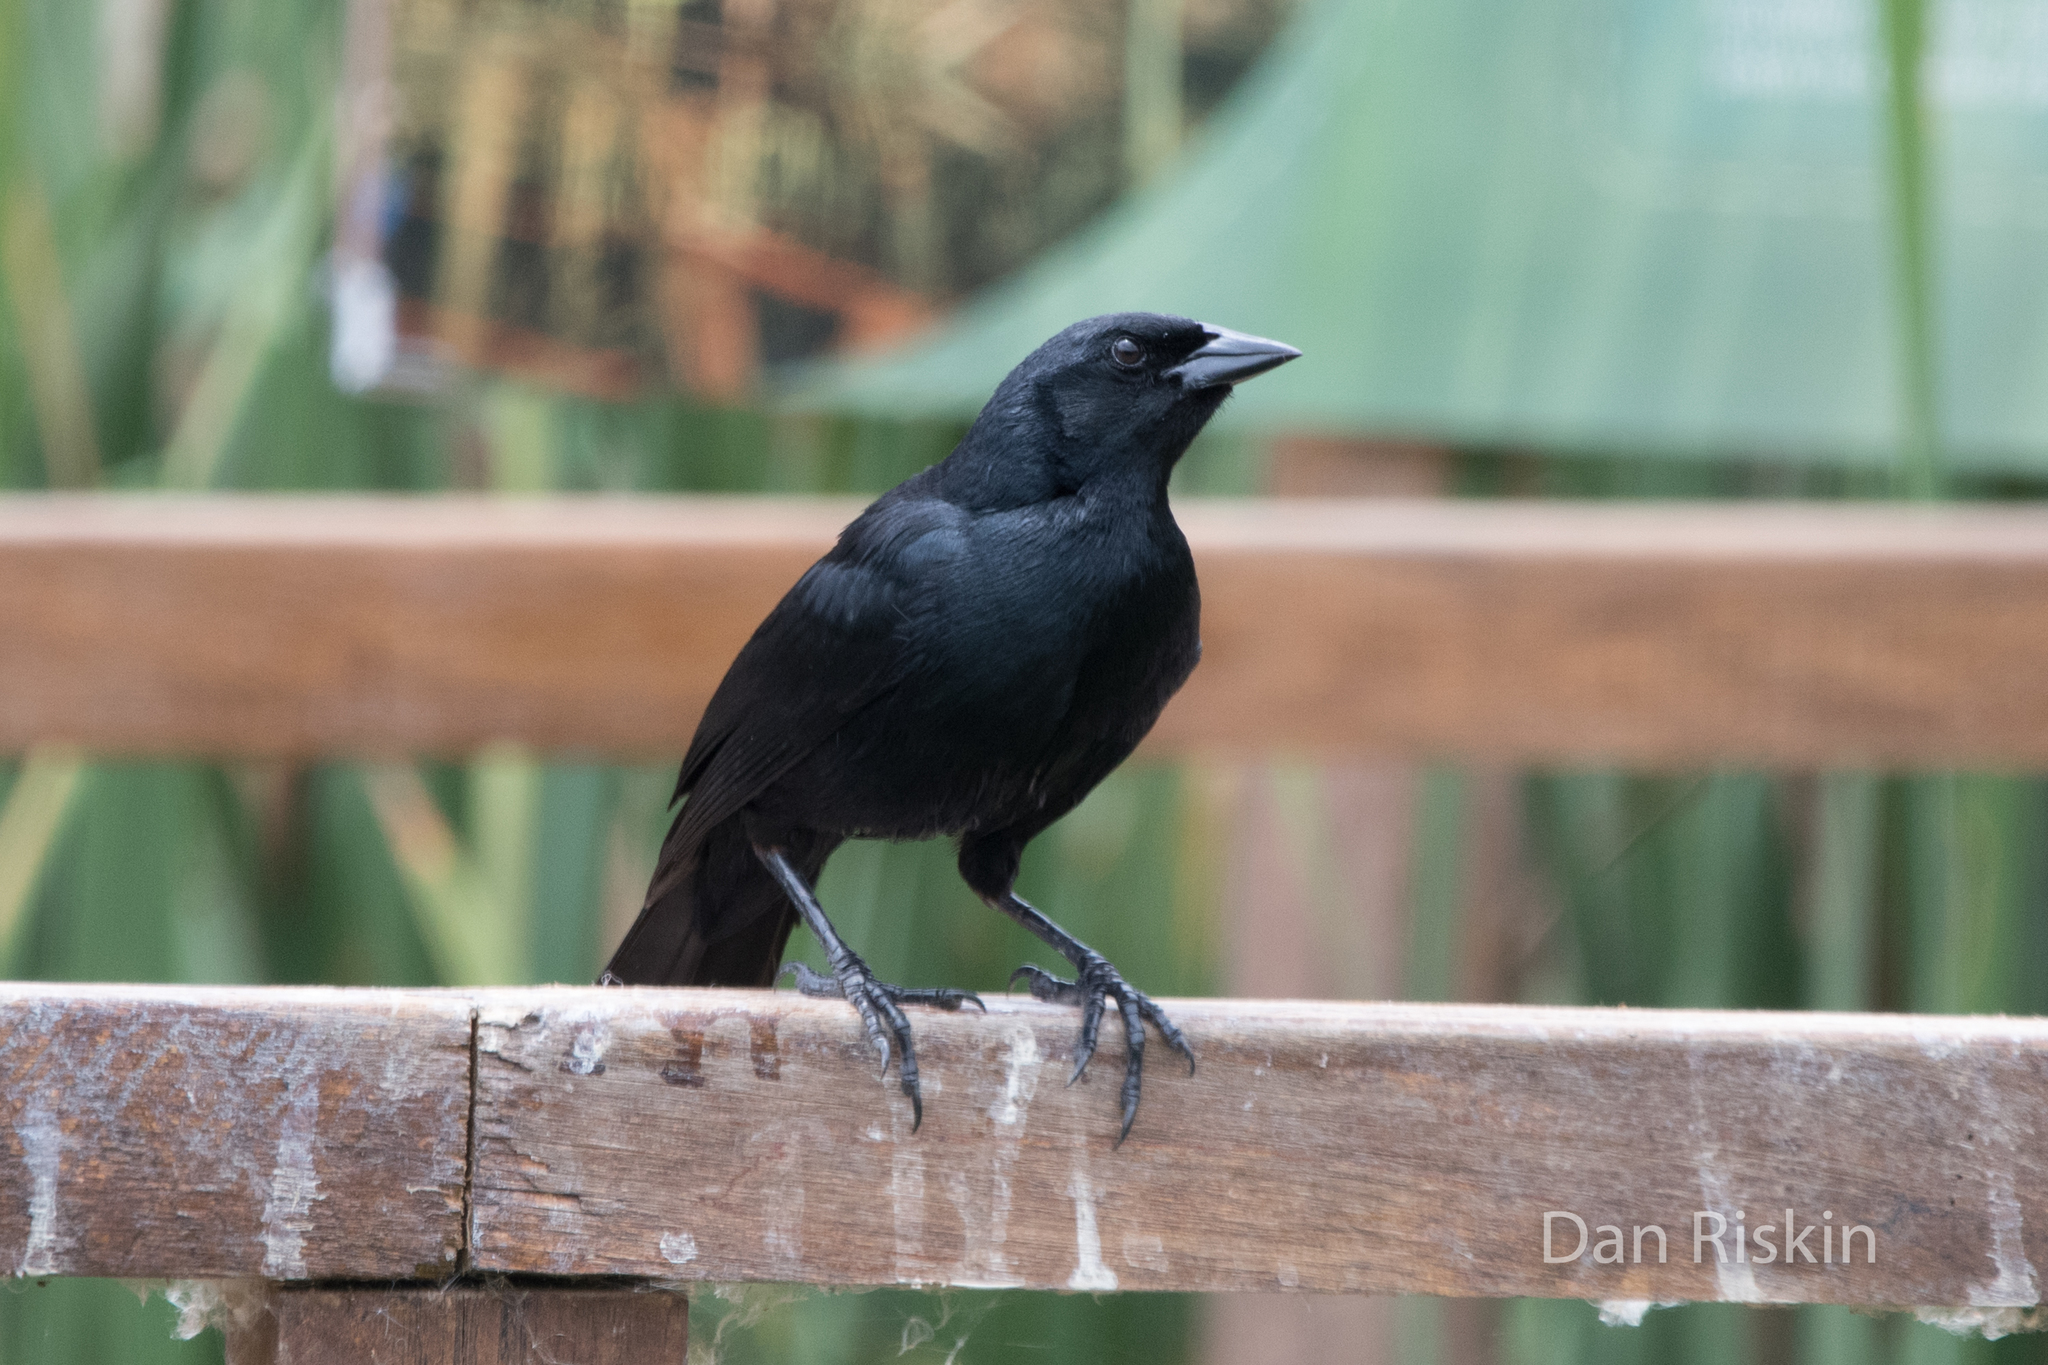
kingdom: Animalia
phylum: Chordata
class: Aves
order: Passeriformes
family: Icteridae
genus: Dives
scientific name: Dives warczewiczi
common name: Scrub blackbird
